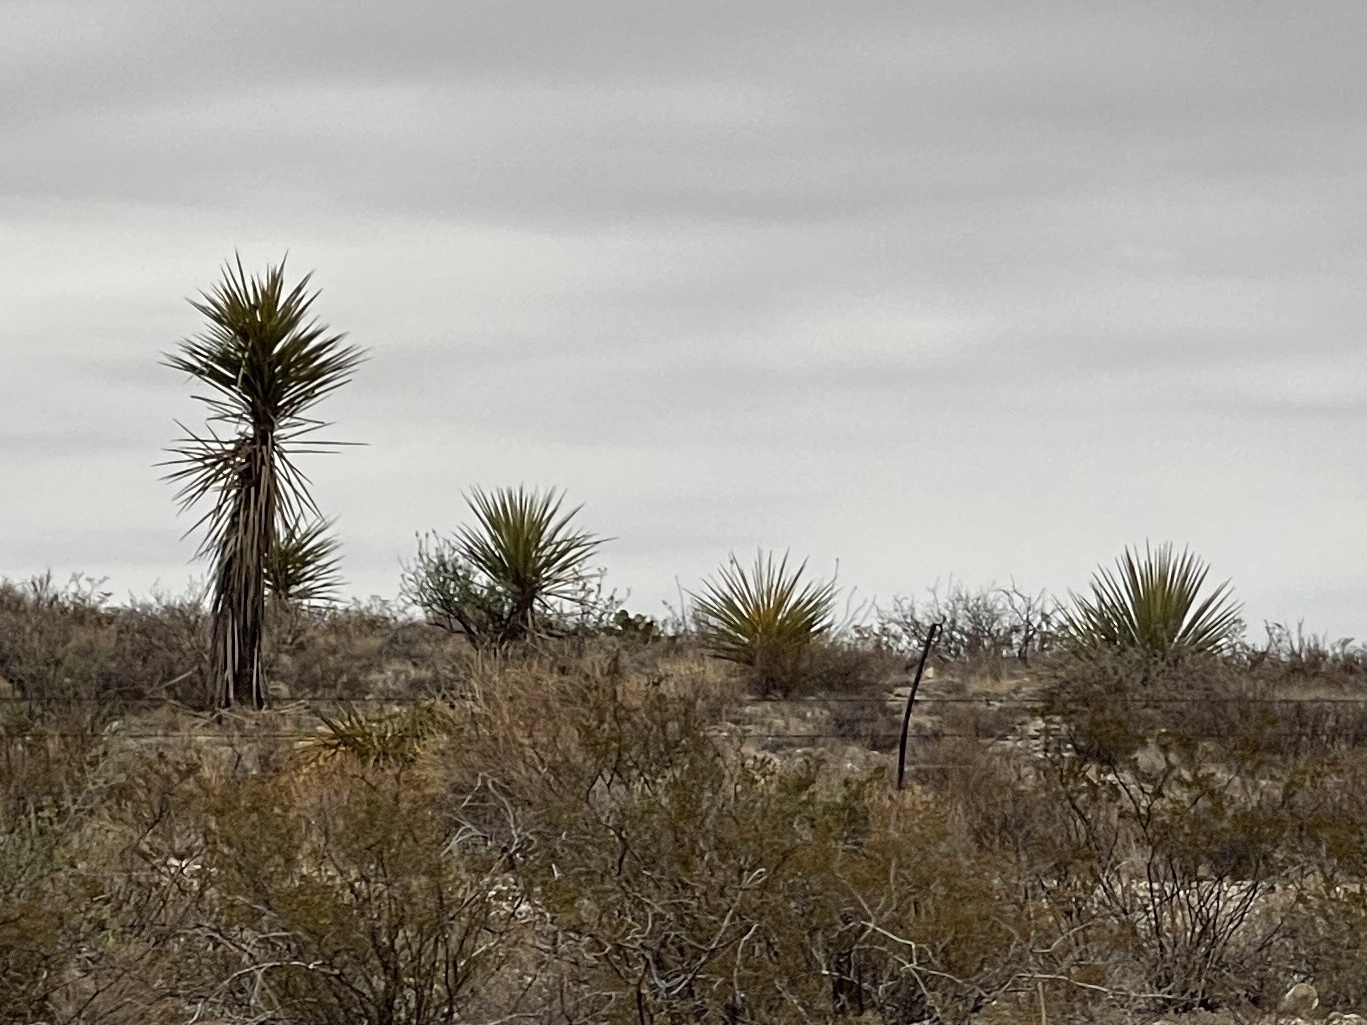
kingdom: Plantae
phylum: Tracheophyta
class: Liliopsida
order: Asparagales
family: Asparagaceae
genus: Yucca
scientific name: Yucca treculiana
